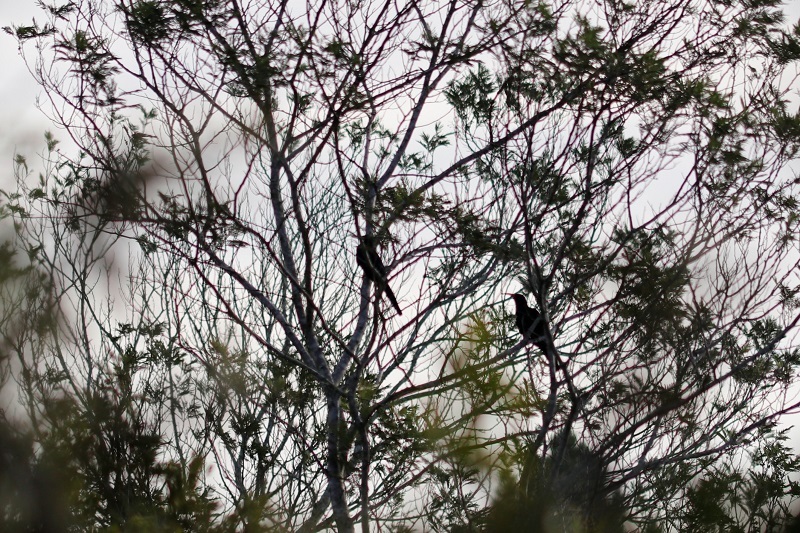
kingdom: Animalia
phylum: Chordata
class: Aves
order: Bucerotiformes
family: Phoeniculidae
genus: Phoeniculus
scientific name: Phoeniculus purpureus
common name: Green woodhoopoe
